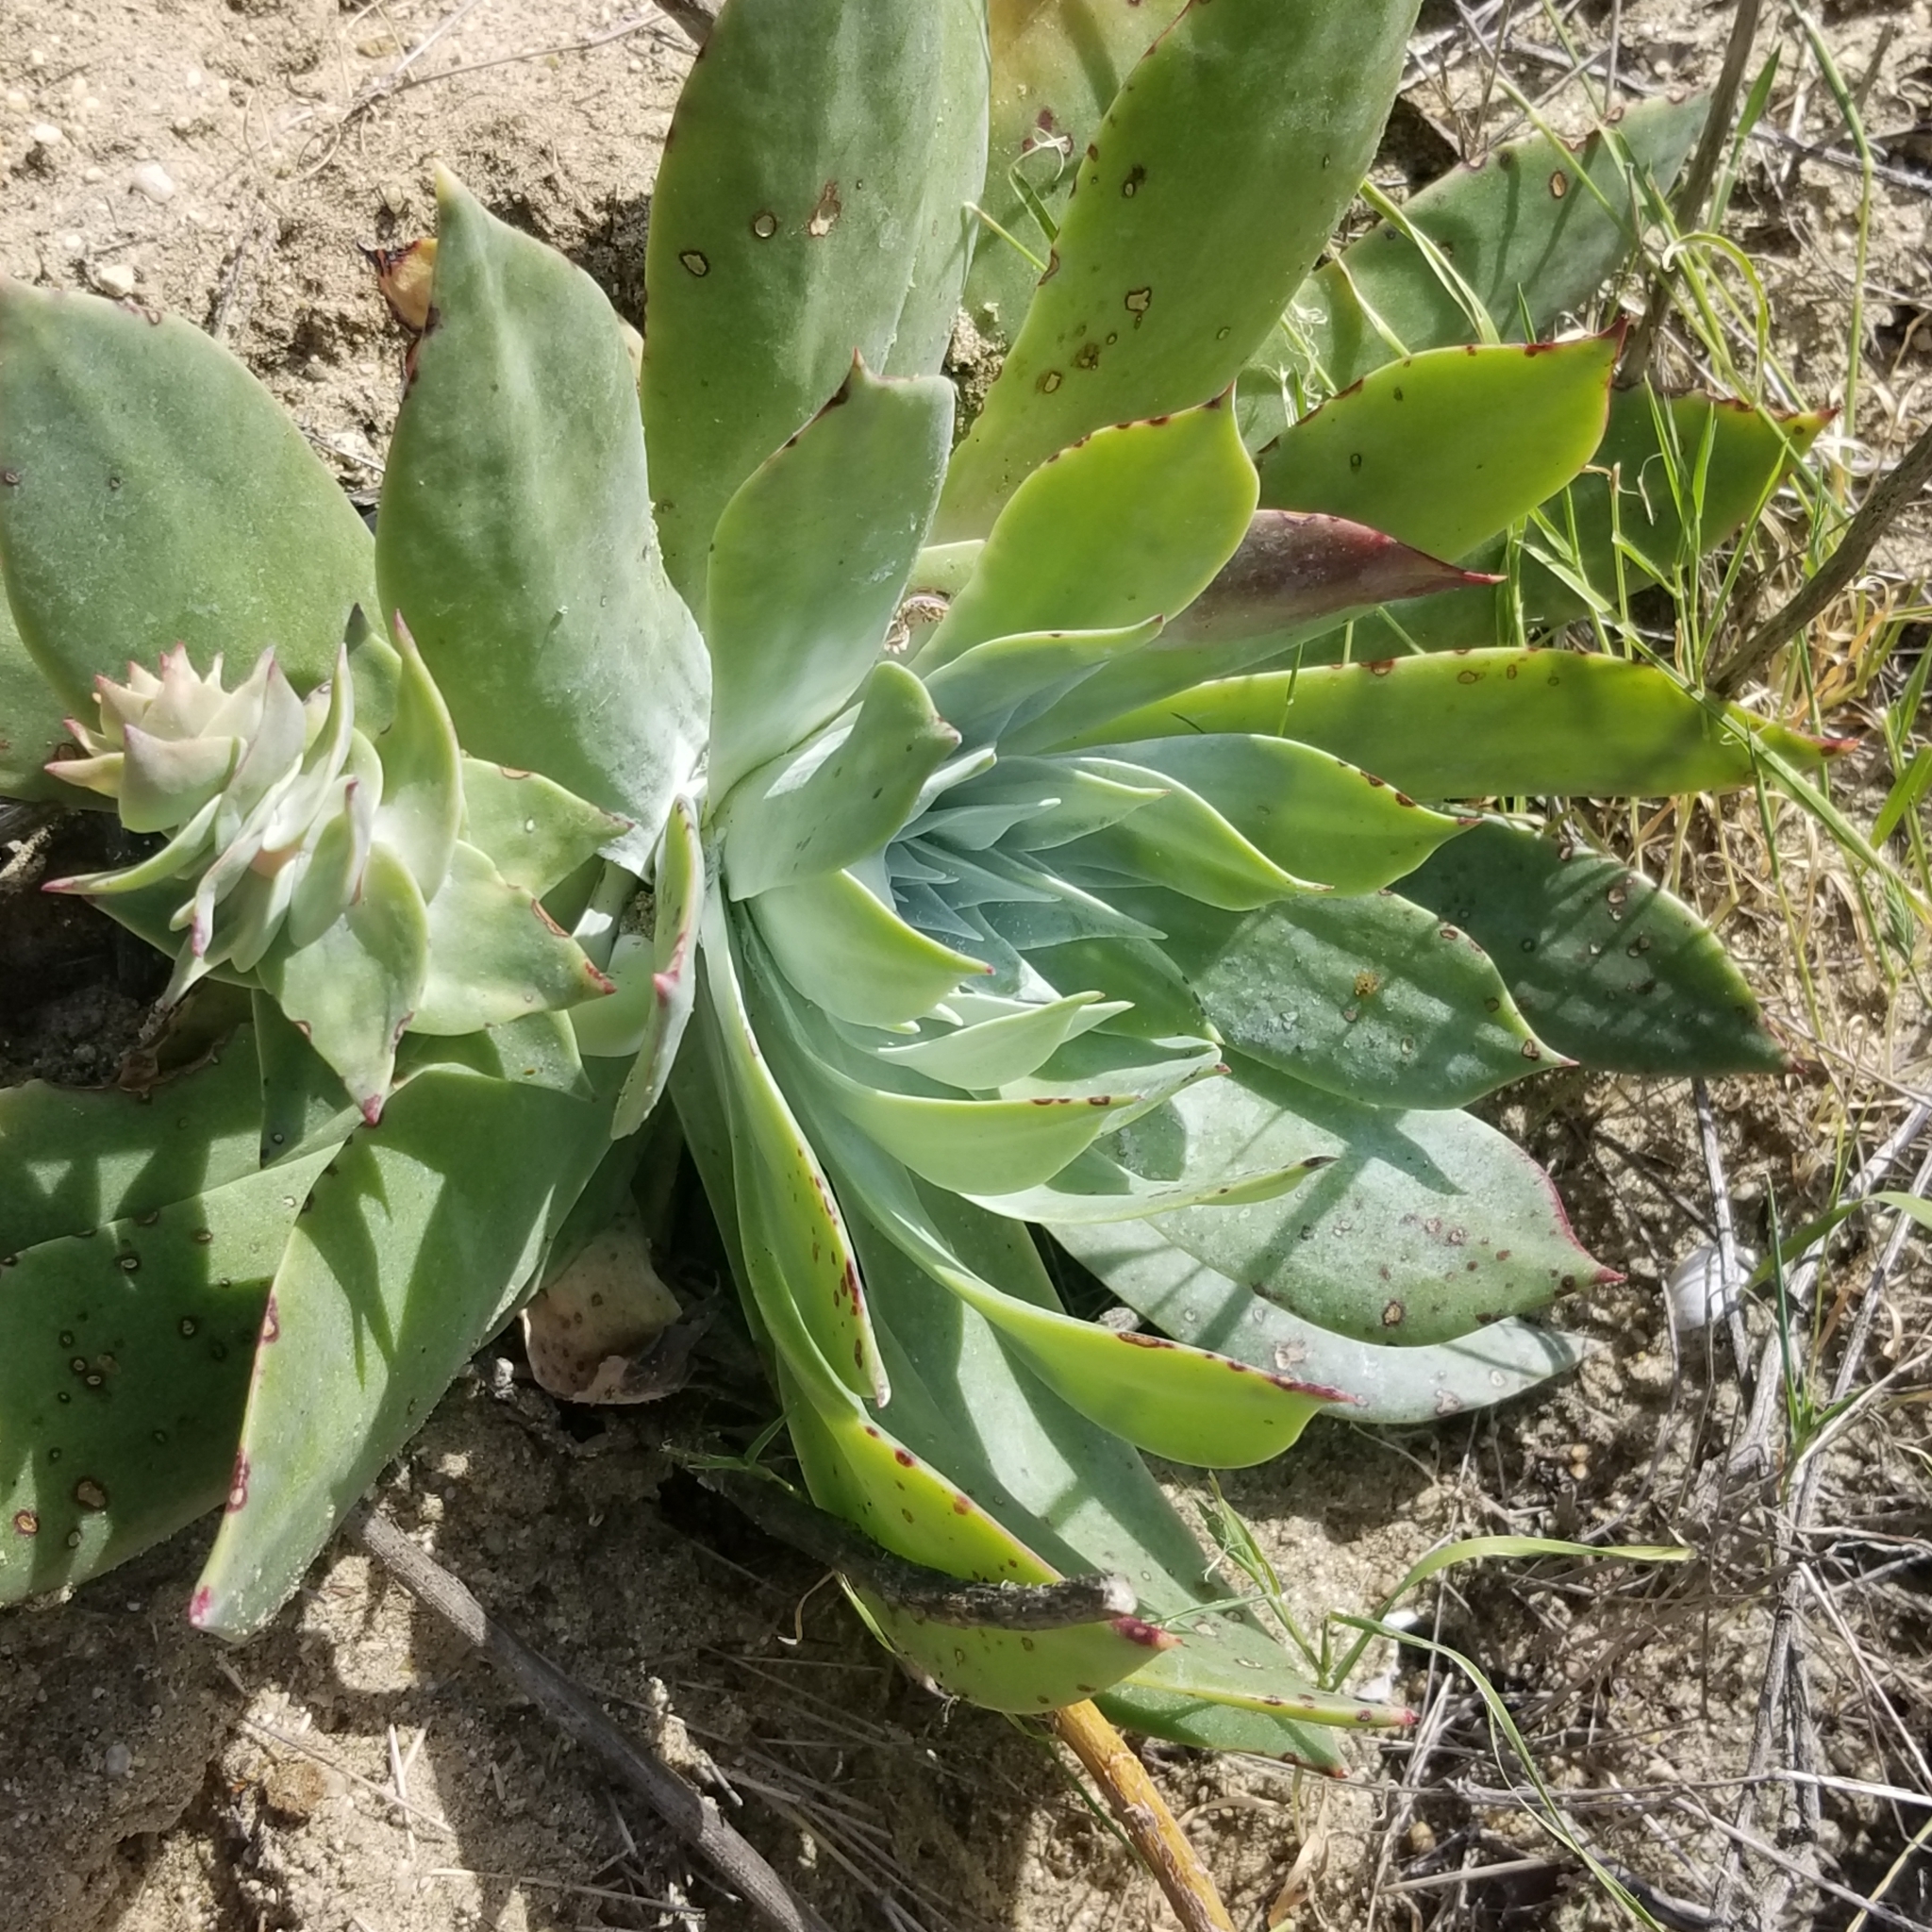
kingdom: Plantae
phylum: Tracheophyta
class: Magnoliopsida
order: Saxifragales
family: Crassulaceae
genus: Dudleya
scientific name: Dudleya pulverulenta
